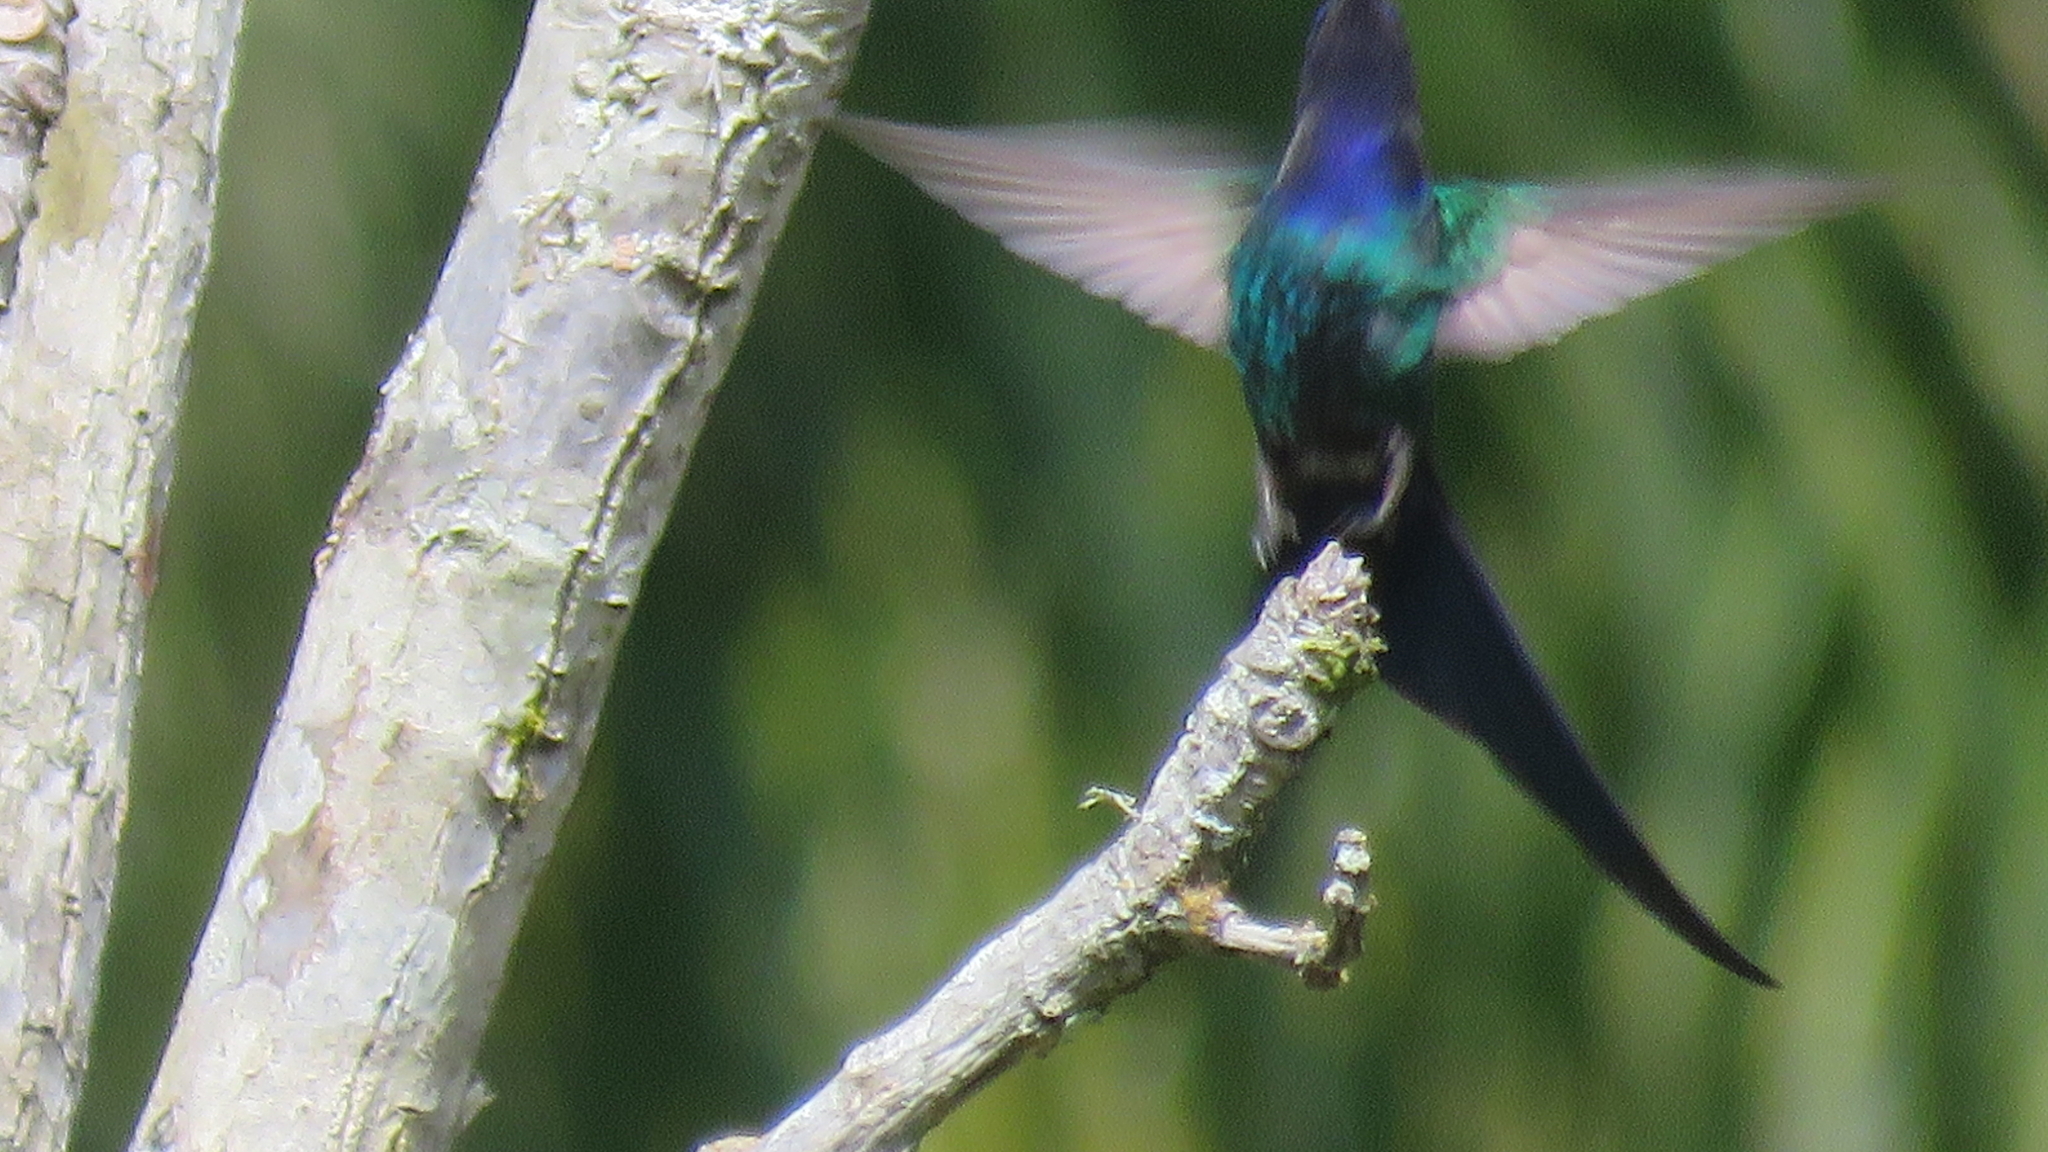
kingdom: Animalia
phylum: Chordata
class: Aves
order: Apodiformes
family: Trochilidae
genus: Eupetomena
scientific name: Eupetomena macroura
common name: Swallow-tailed hummingbird
